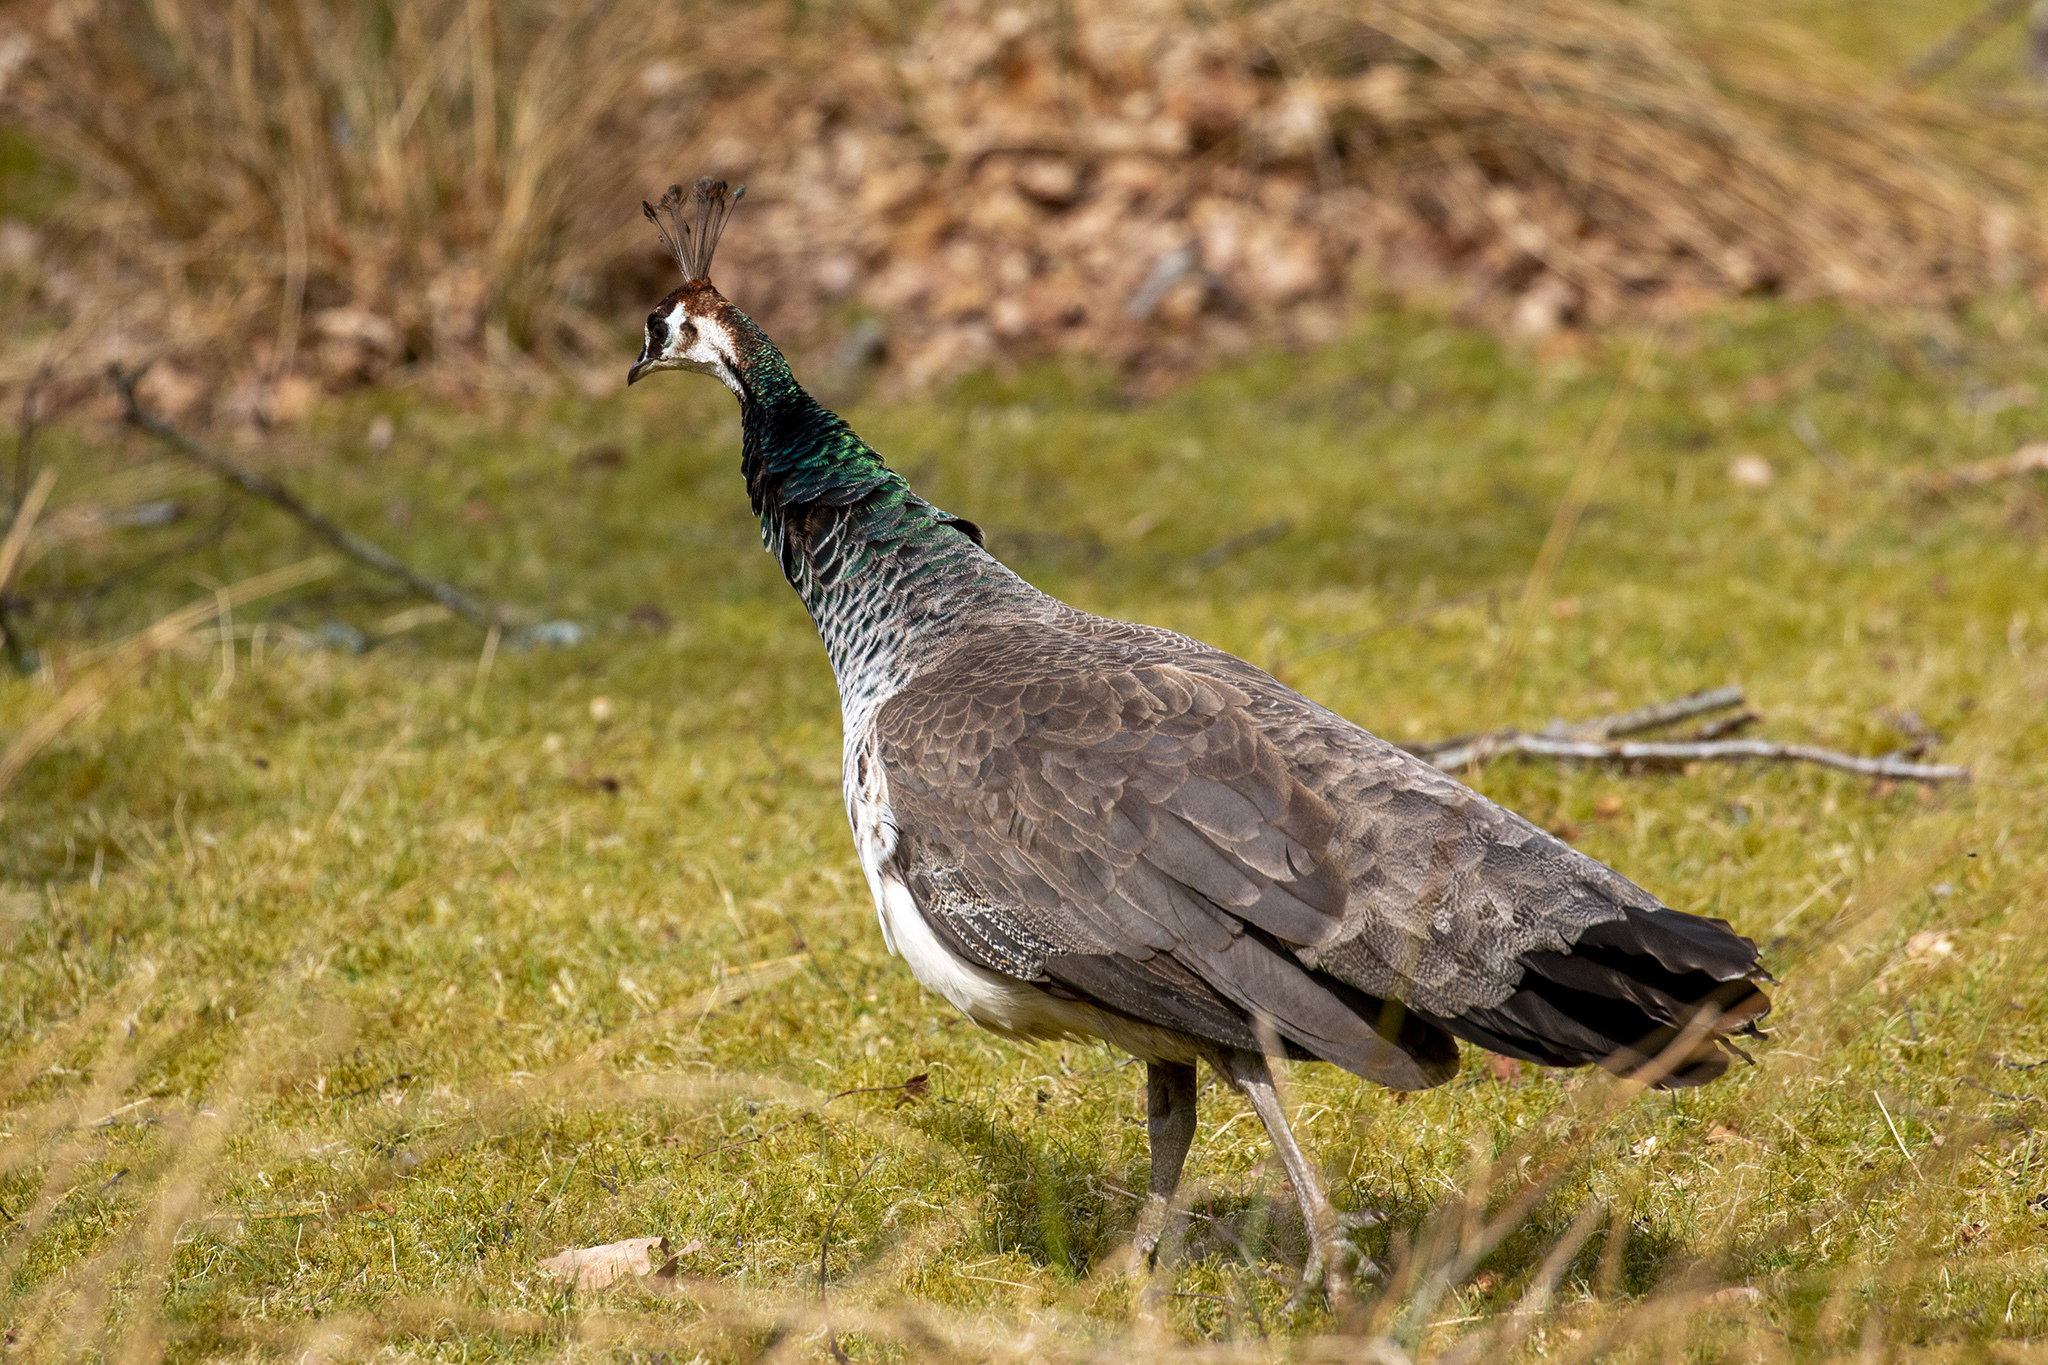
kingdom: Animalia
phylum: Chordata
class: Aves
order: Galliformes
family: Phasianidae
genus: Pavo
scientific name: Pavo cristatus
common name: Indian peafowl
